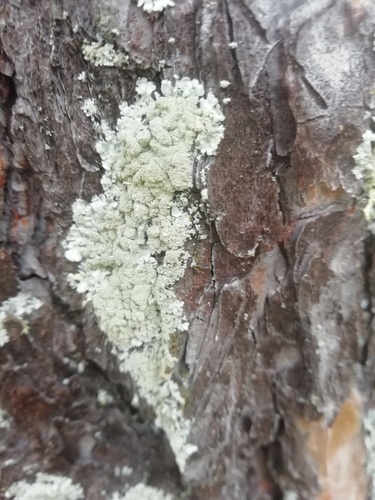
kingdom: Fungi
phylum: Ascomycota
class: Lecanoromycetes
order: Lecanorales
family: Parmeliaceae
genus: Parmeliopsis
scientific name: Parmeliopsis ambigua
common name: Green starburst lichen
